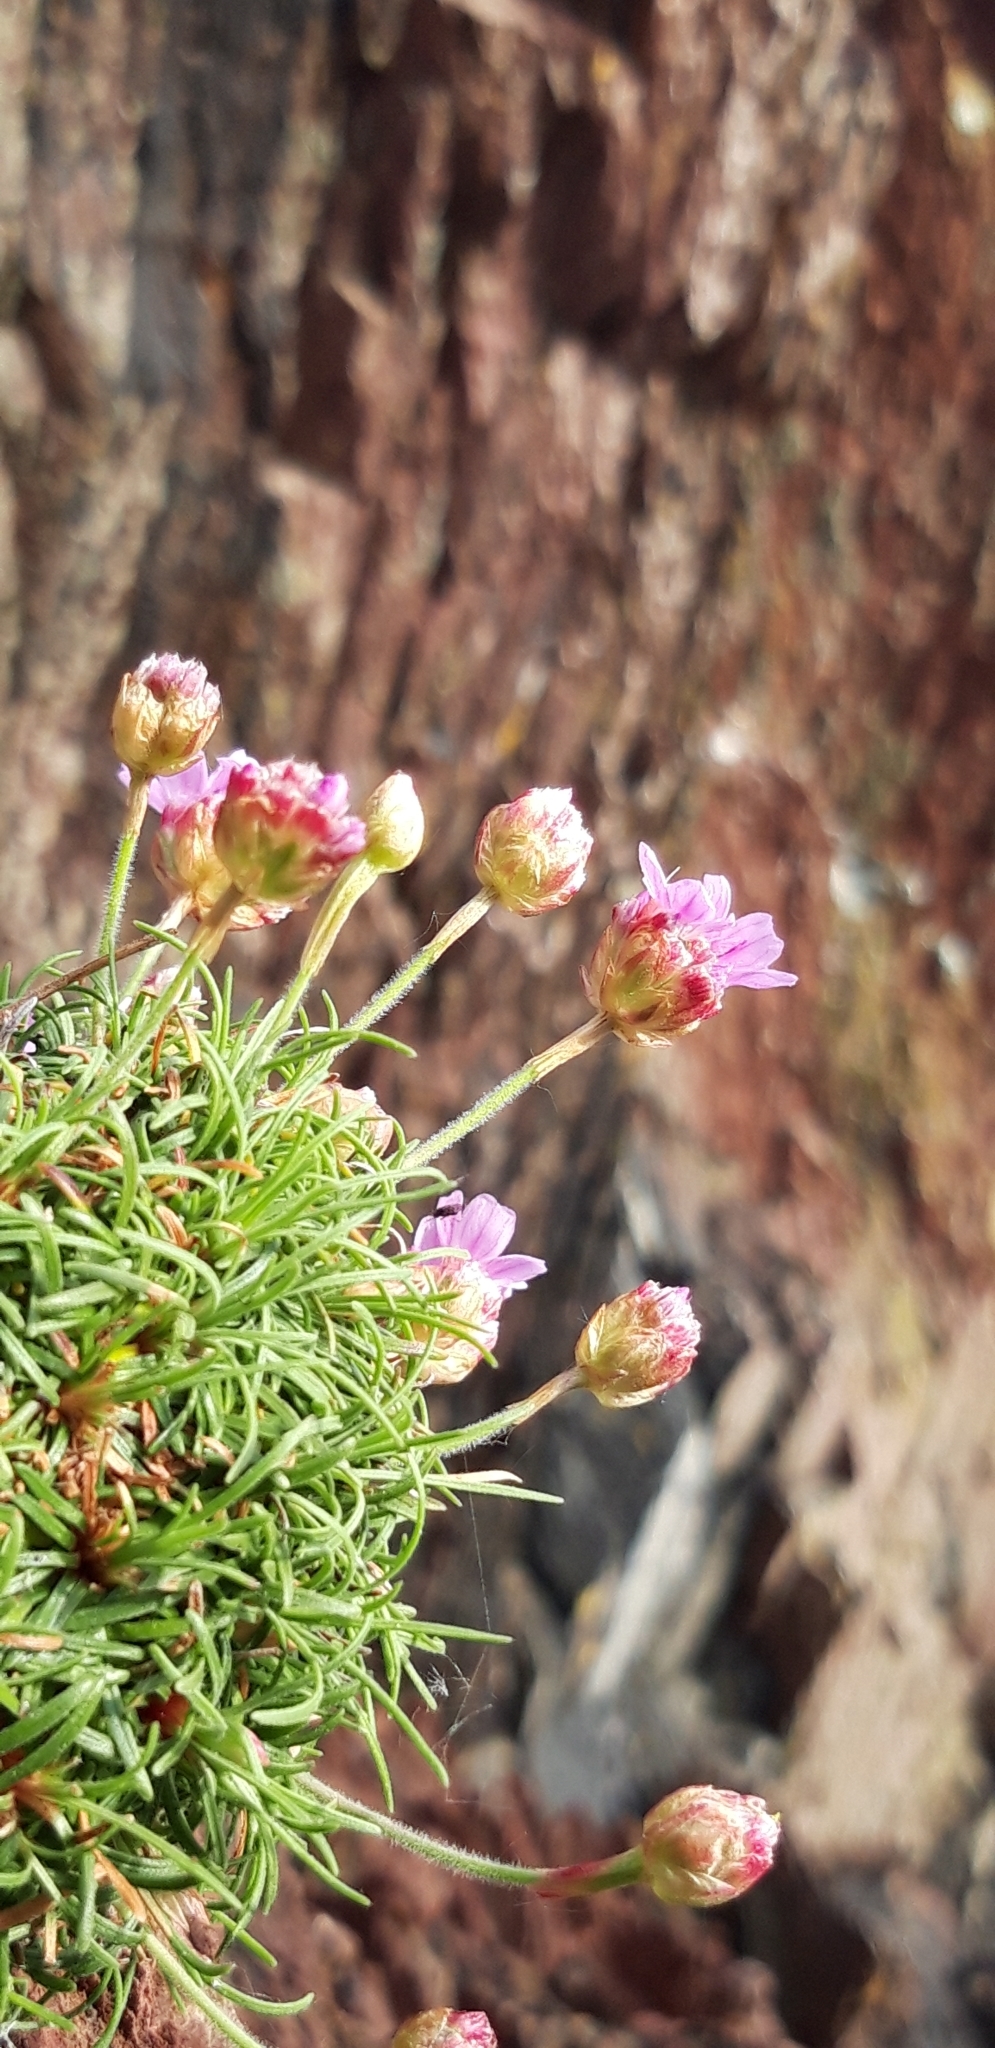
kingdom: Plantae
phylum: Tracheophyta
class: Magnoliopsida
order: Caryophyllales
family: Plumbaginaceae
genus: Armeria
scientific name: Armeria maritima
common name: Thrift
